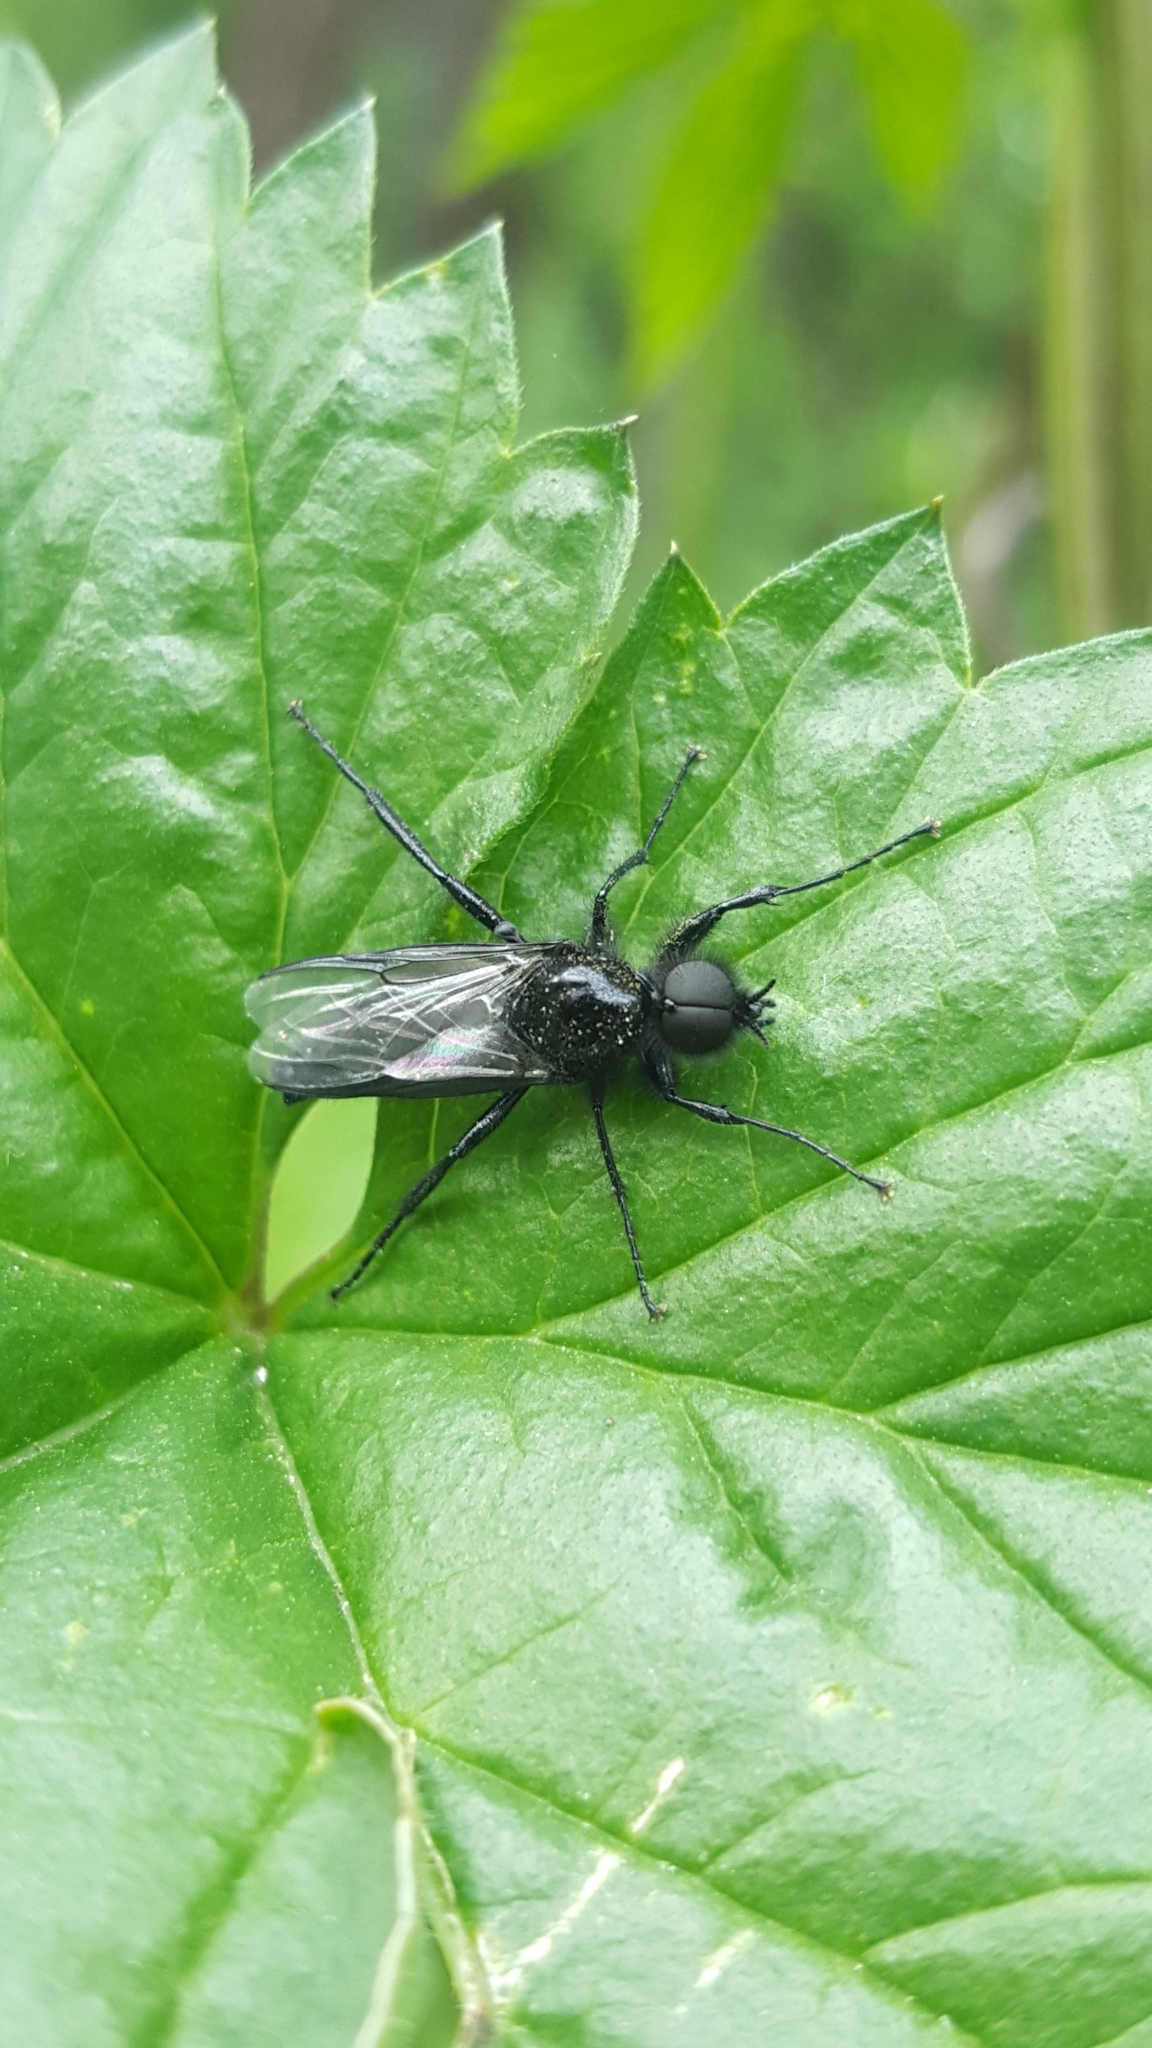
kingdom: Animalia
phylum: Arthropoda
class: Insecta
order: Diptera
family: Bibionidae
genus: Bibio
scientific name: Bibio marci
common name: St marks fly
